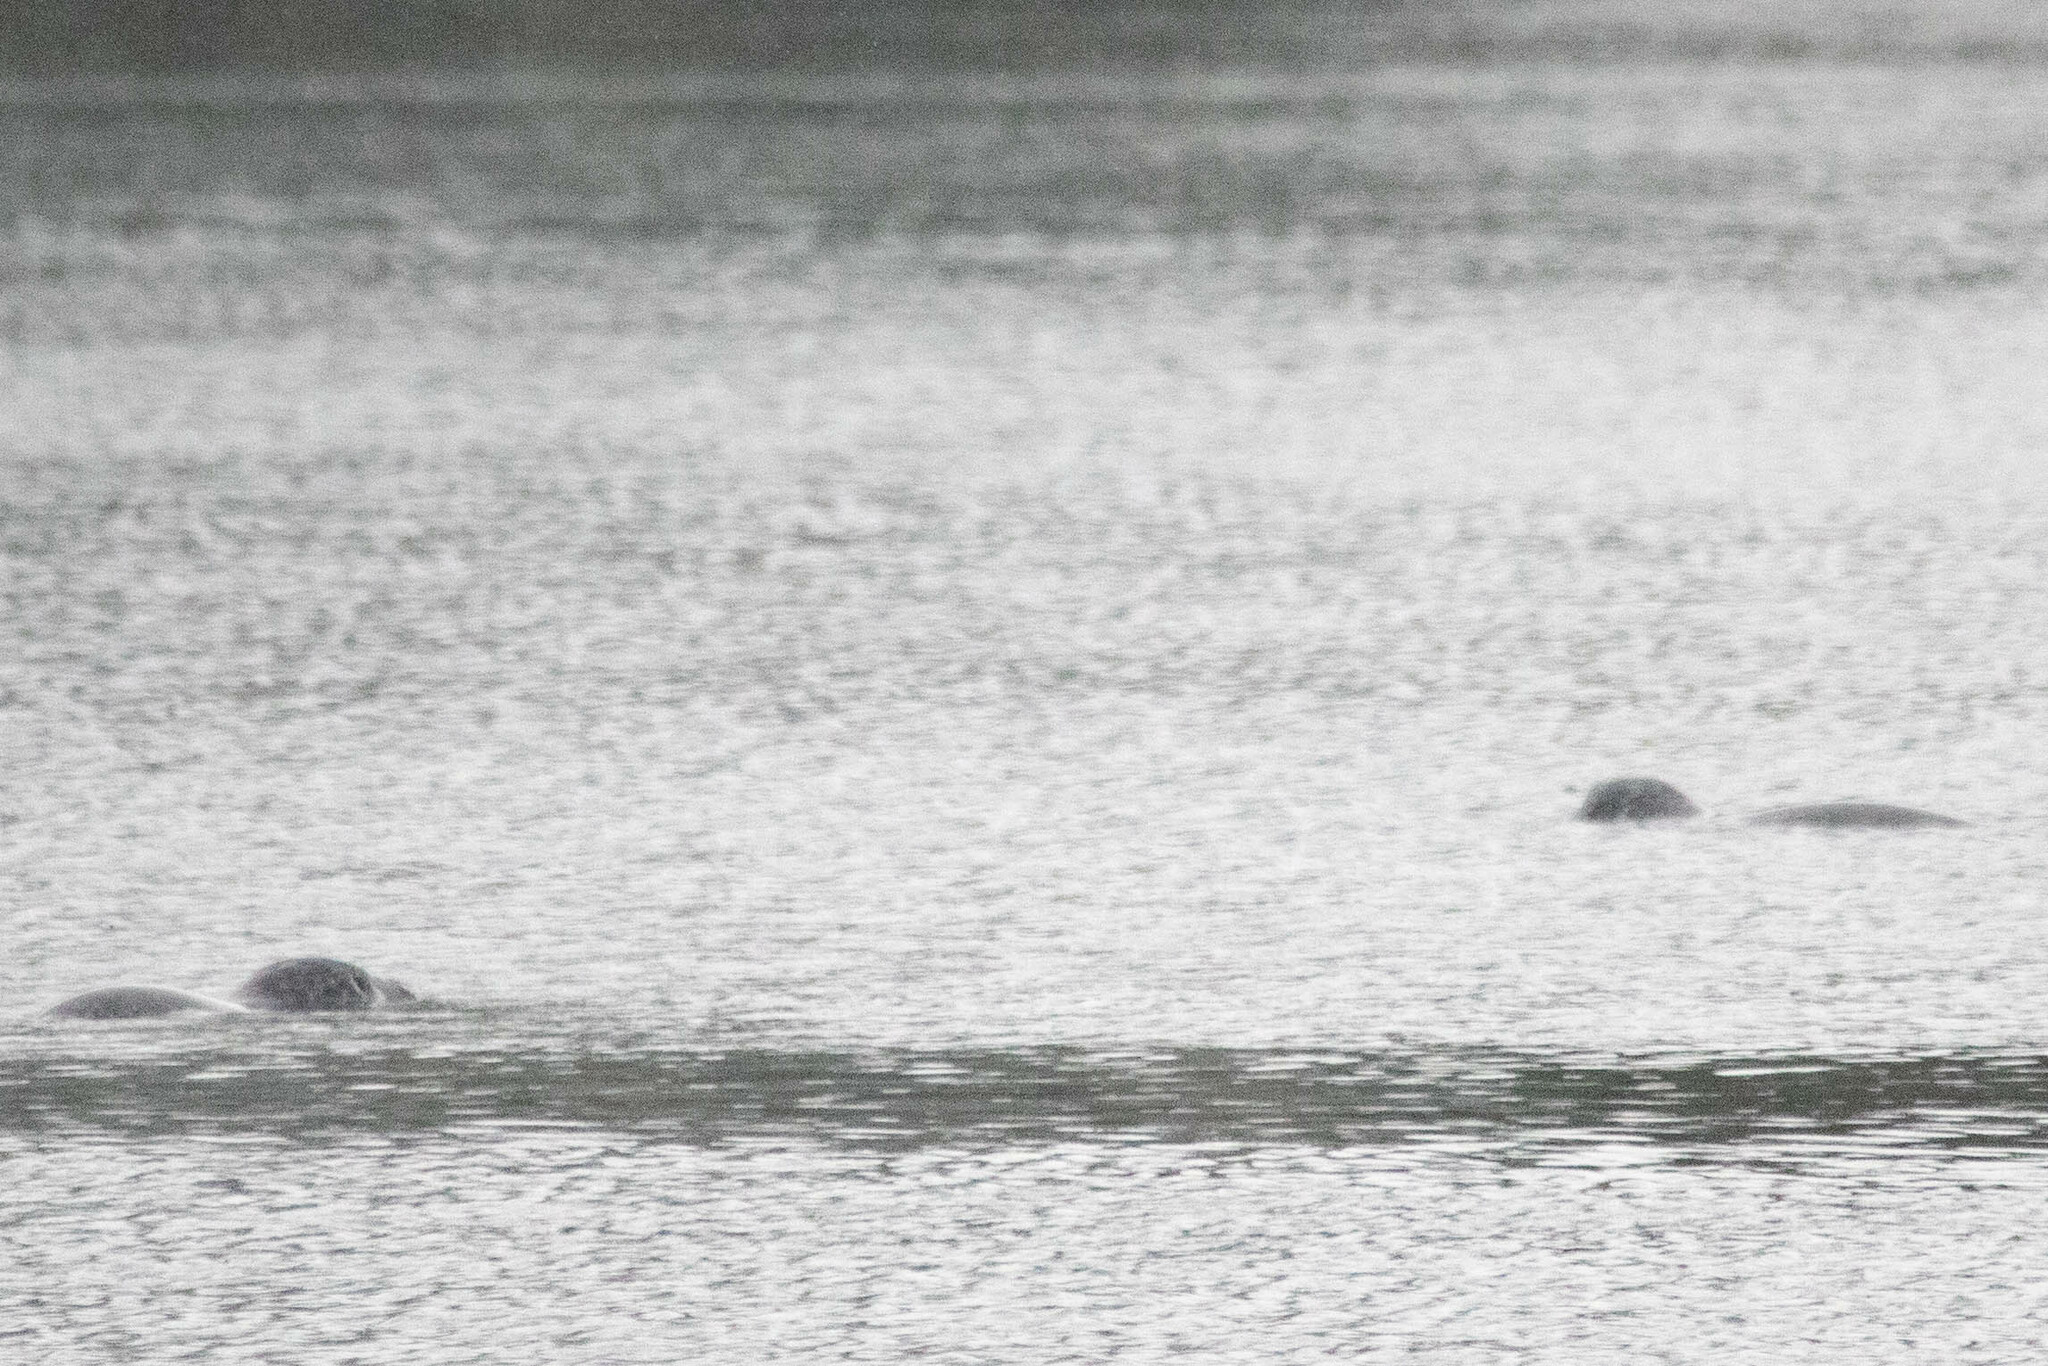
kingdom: Animalia
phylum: Chordata
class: Mammalia
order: Carnivora
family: Phocidae
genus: Phoca
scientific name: Phoca vitulina
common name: Harbor seal
